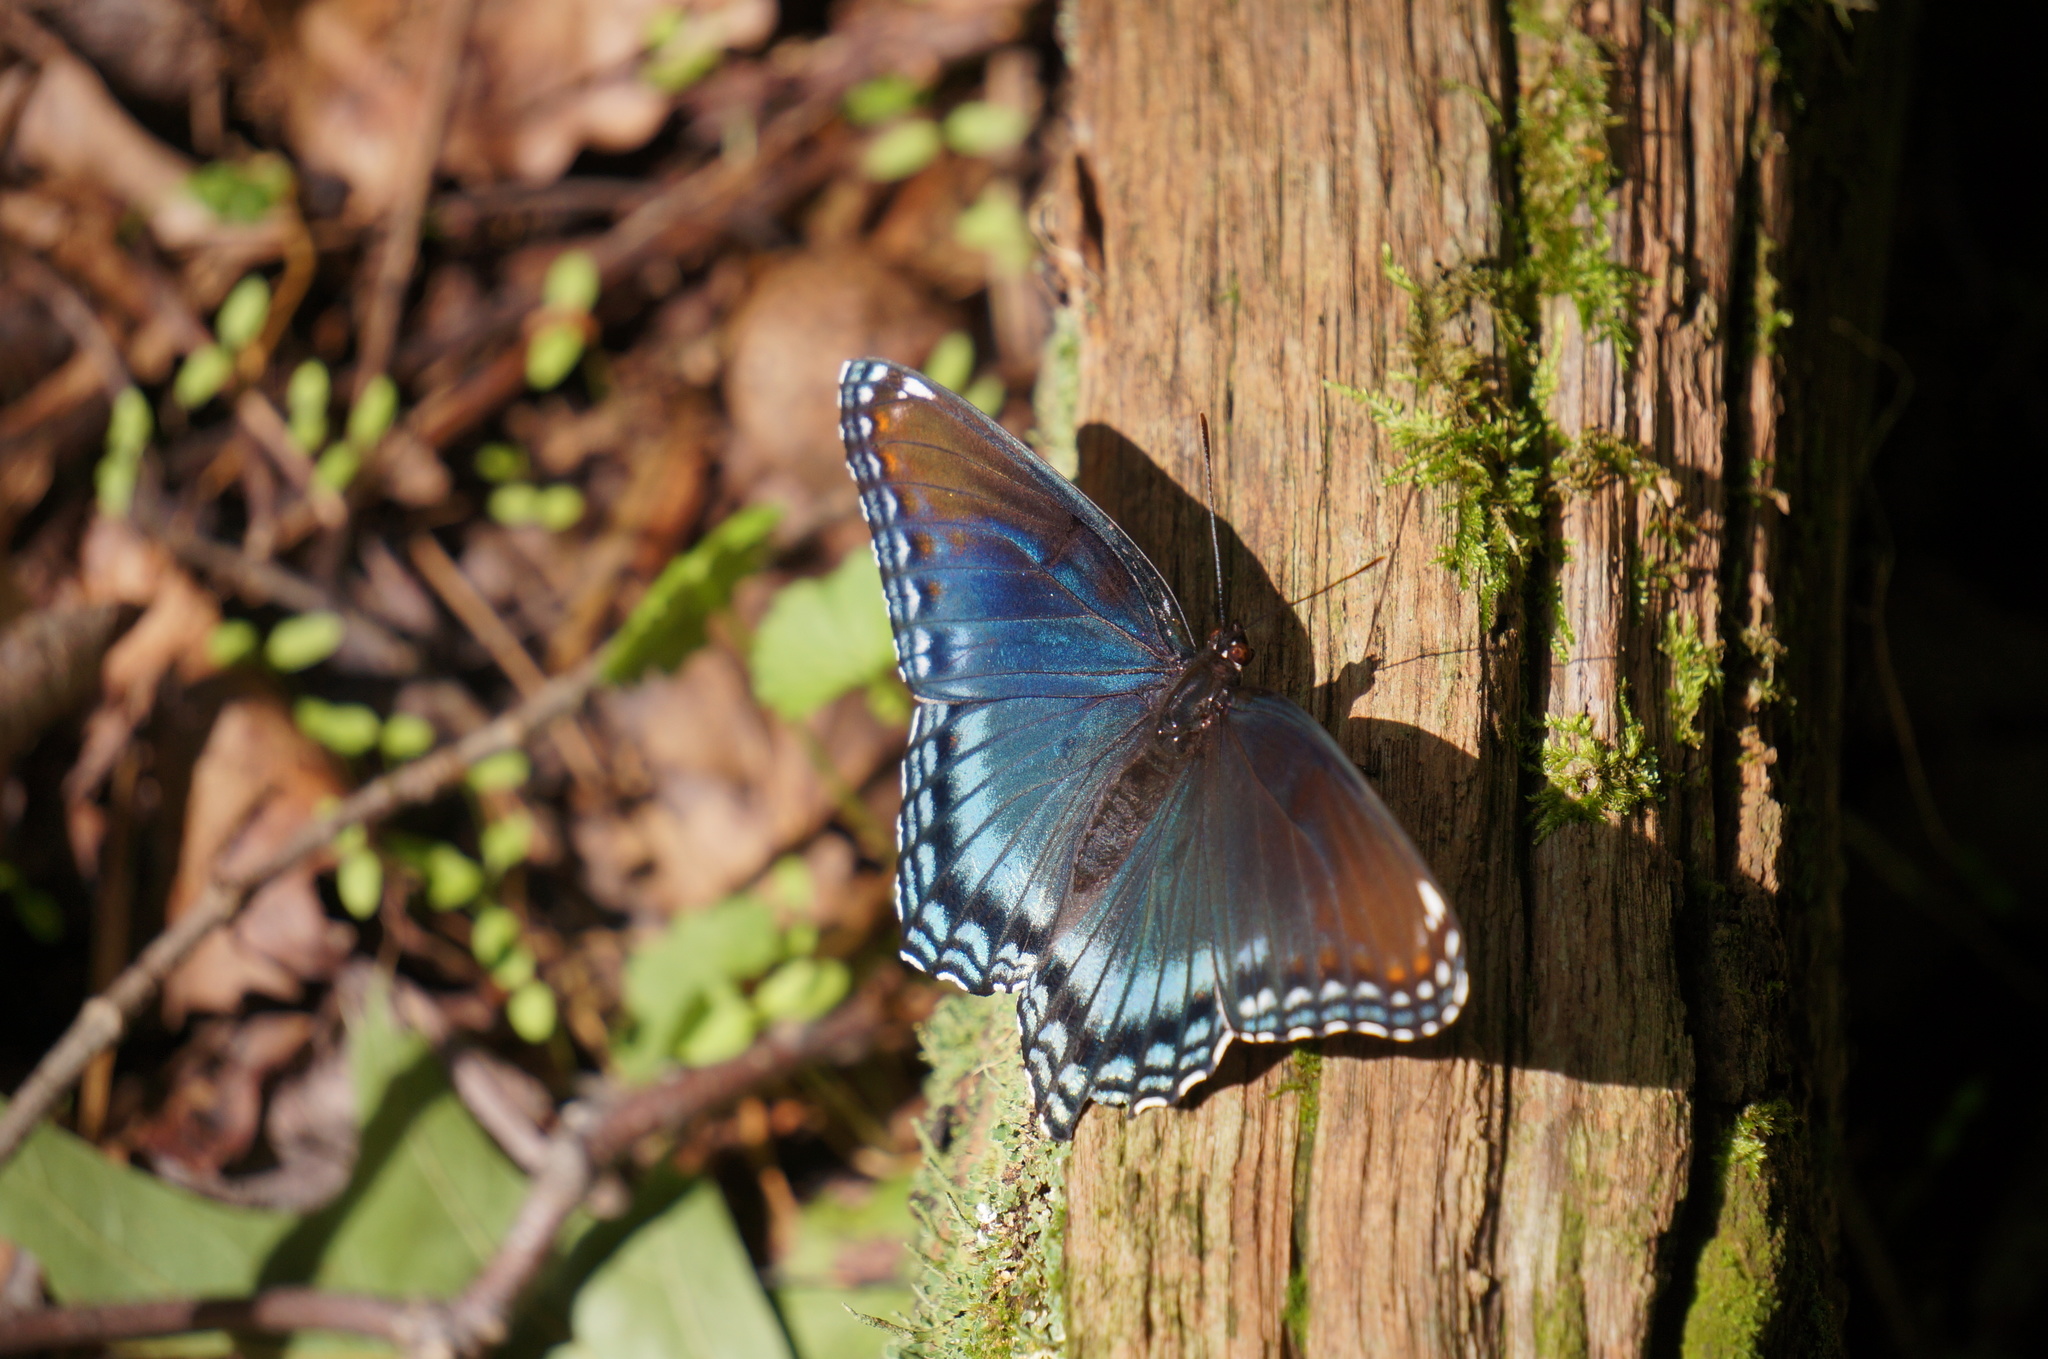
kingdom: Animalia
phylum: Arthropoda
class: Insecta
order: Lepidoptera
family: Nymphalidae
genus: Limenitis
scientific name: Limenitis astyanax
